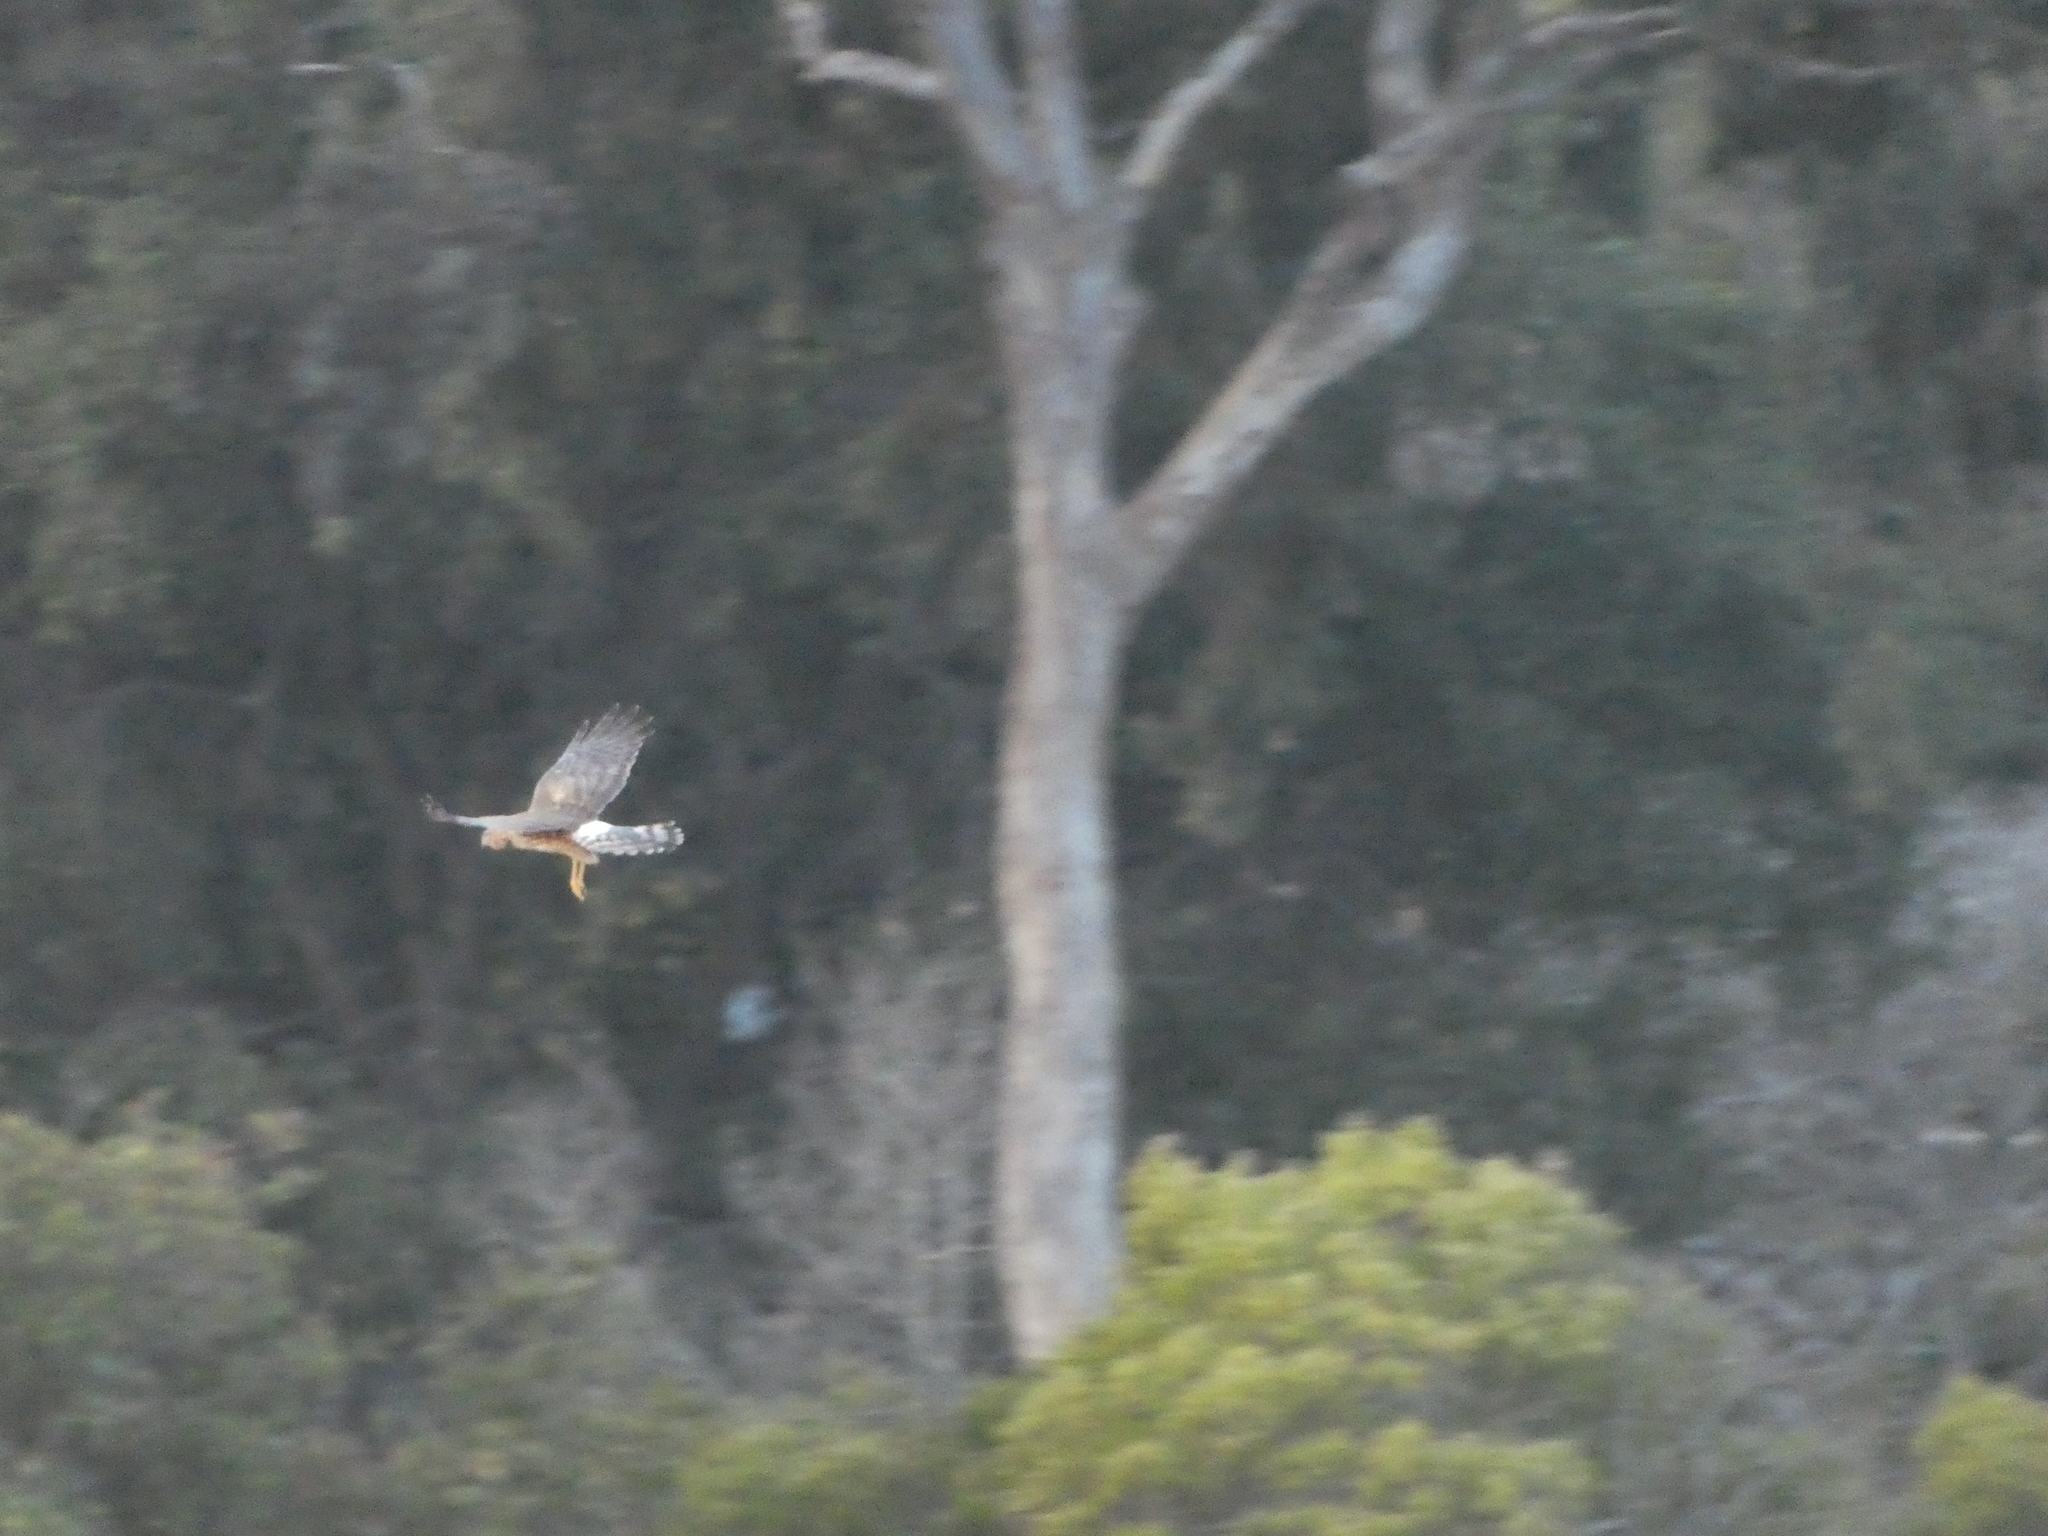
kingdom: Animalia
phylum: Chordata
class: Aves
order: Accipitriformes
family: Accipitridae
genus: Circus
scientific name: Circus cyaneus
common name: Hen harrier
